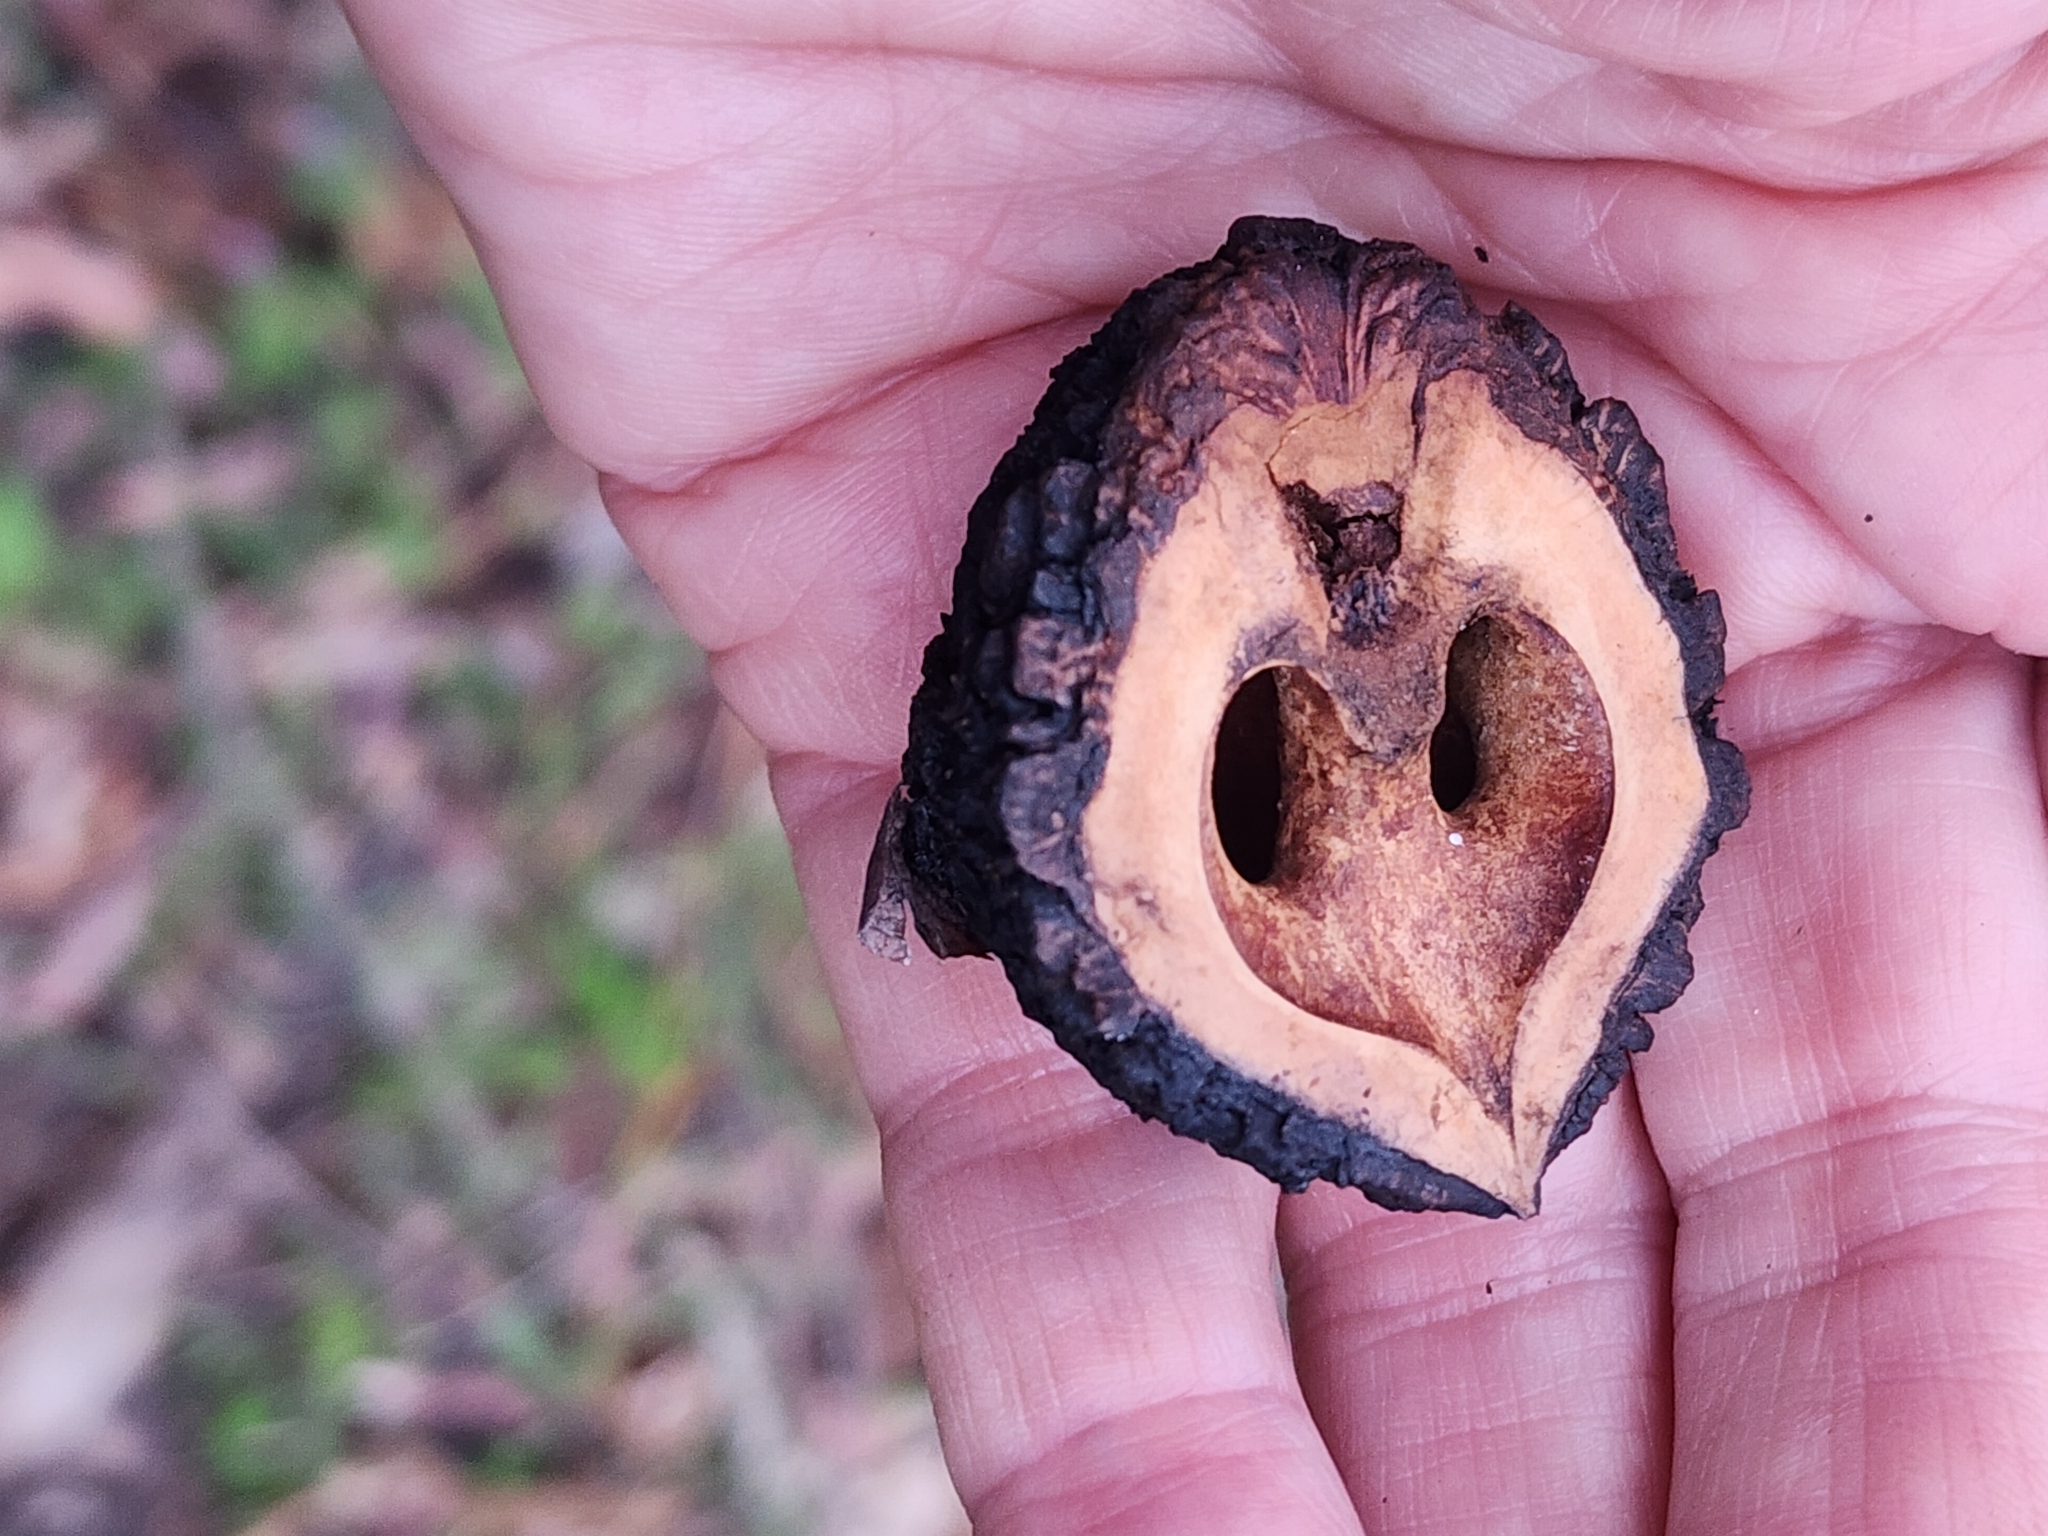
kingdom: Plantae
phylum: Tracheophyta
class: Magnoliopsida
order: Fagales
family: Juglandaceae
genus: Juglans
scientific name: Juglans nigra
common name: Black walnut
